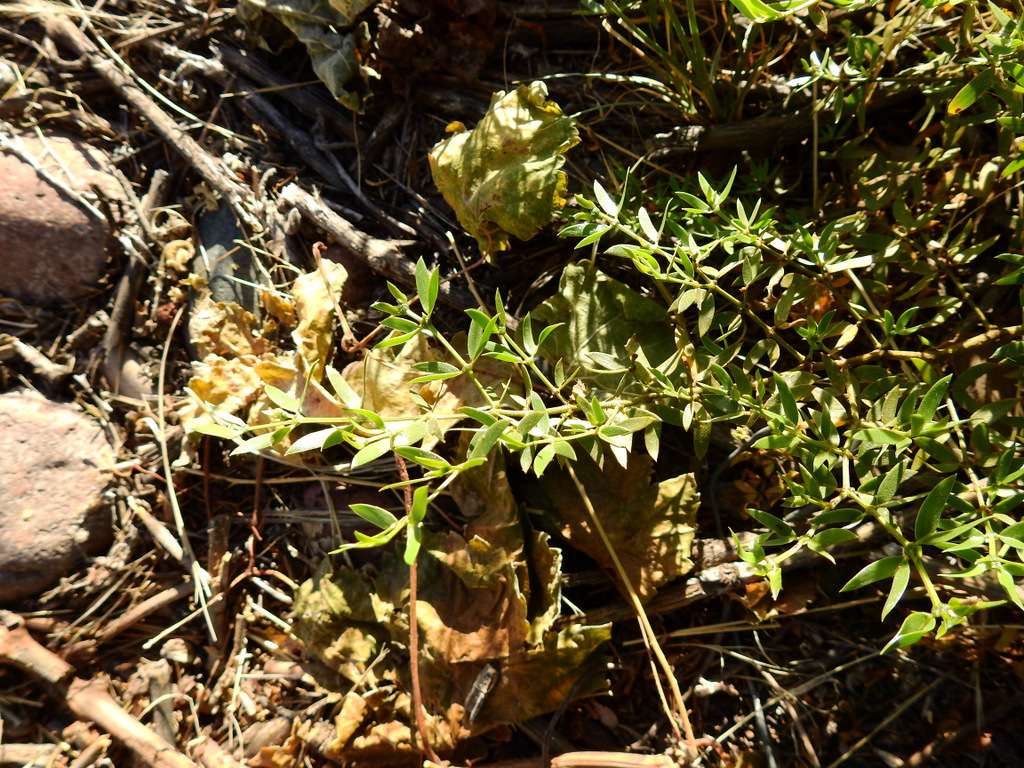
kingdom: Plantae
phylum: Tracheophyta
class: Magnoliopsida
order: Zygophyllales
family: Zygophyllaceae
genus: Larrea
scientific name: Larrea divaricata
